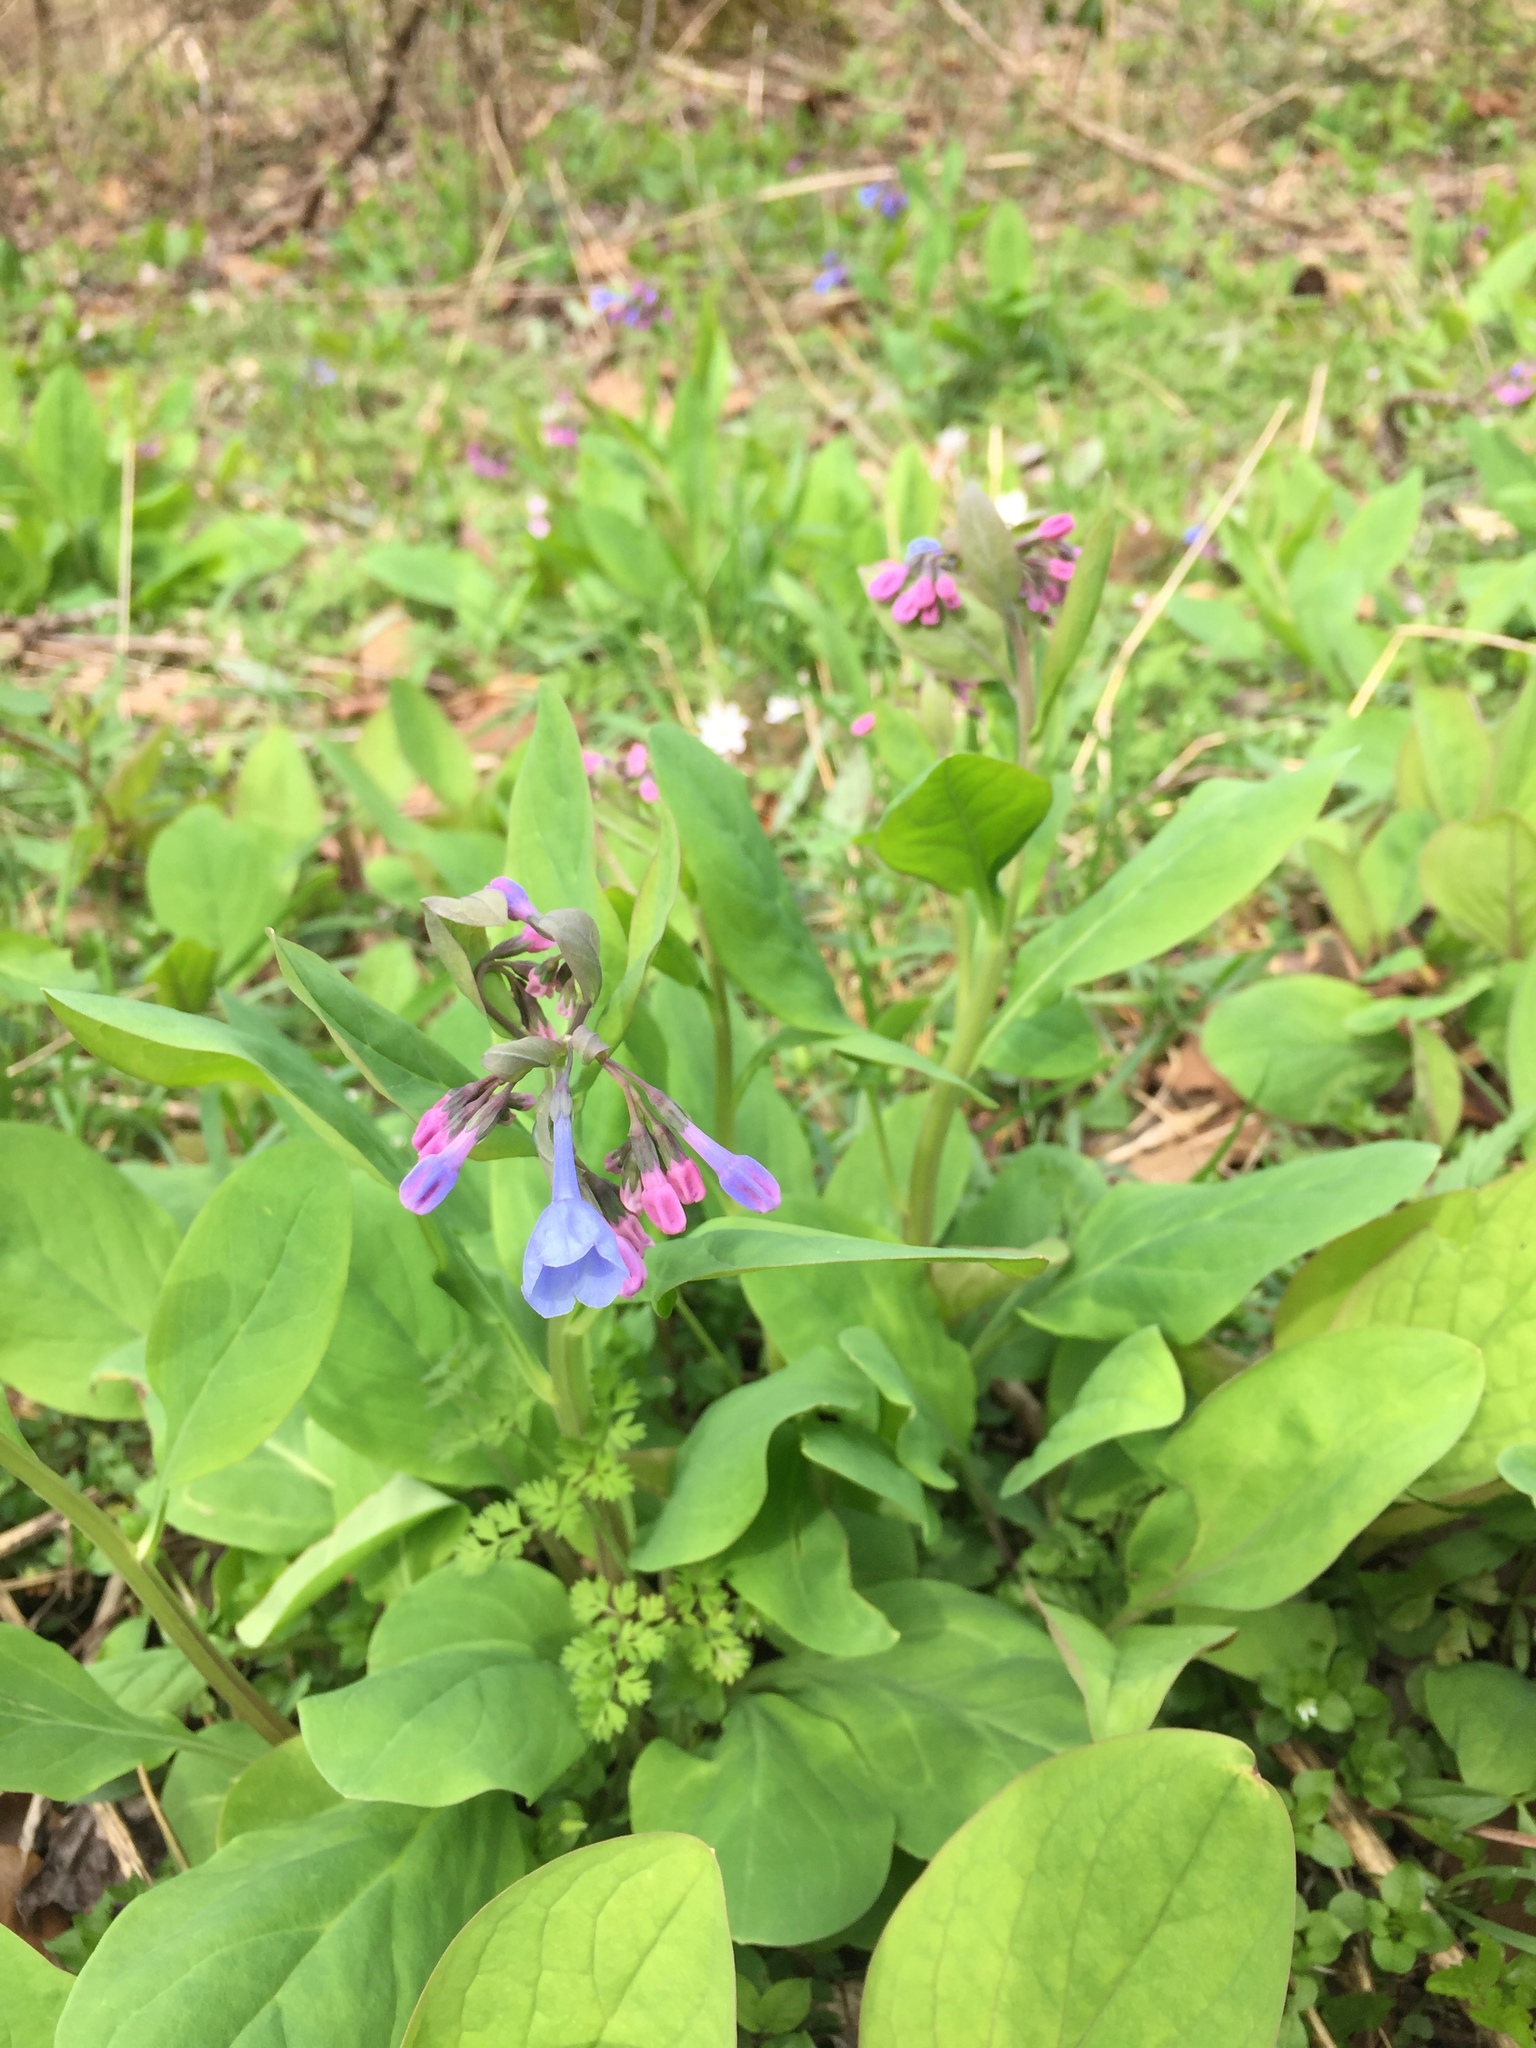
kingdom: Plantae
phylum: Tracheophyta
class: Magnoliopsida
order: Boraginales
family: Boraginaceae
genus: Mertensia
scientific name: Mertensia virginica
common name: Virginia bluebells
